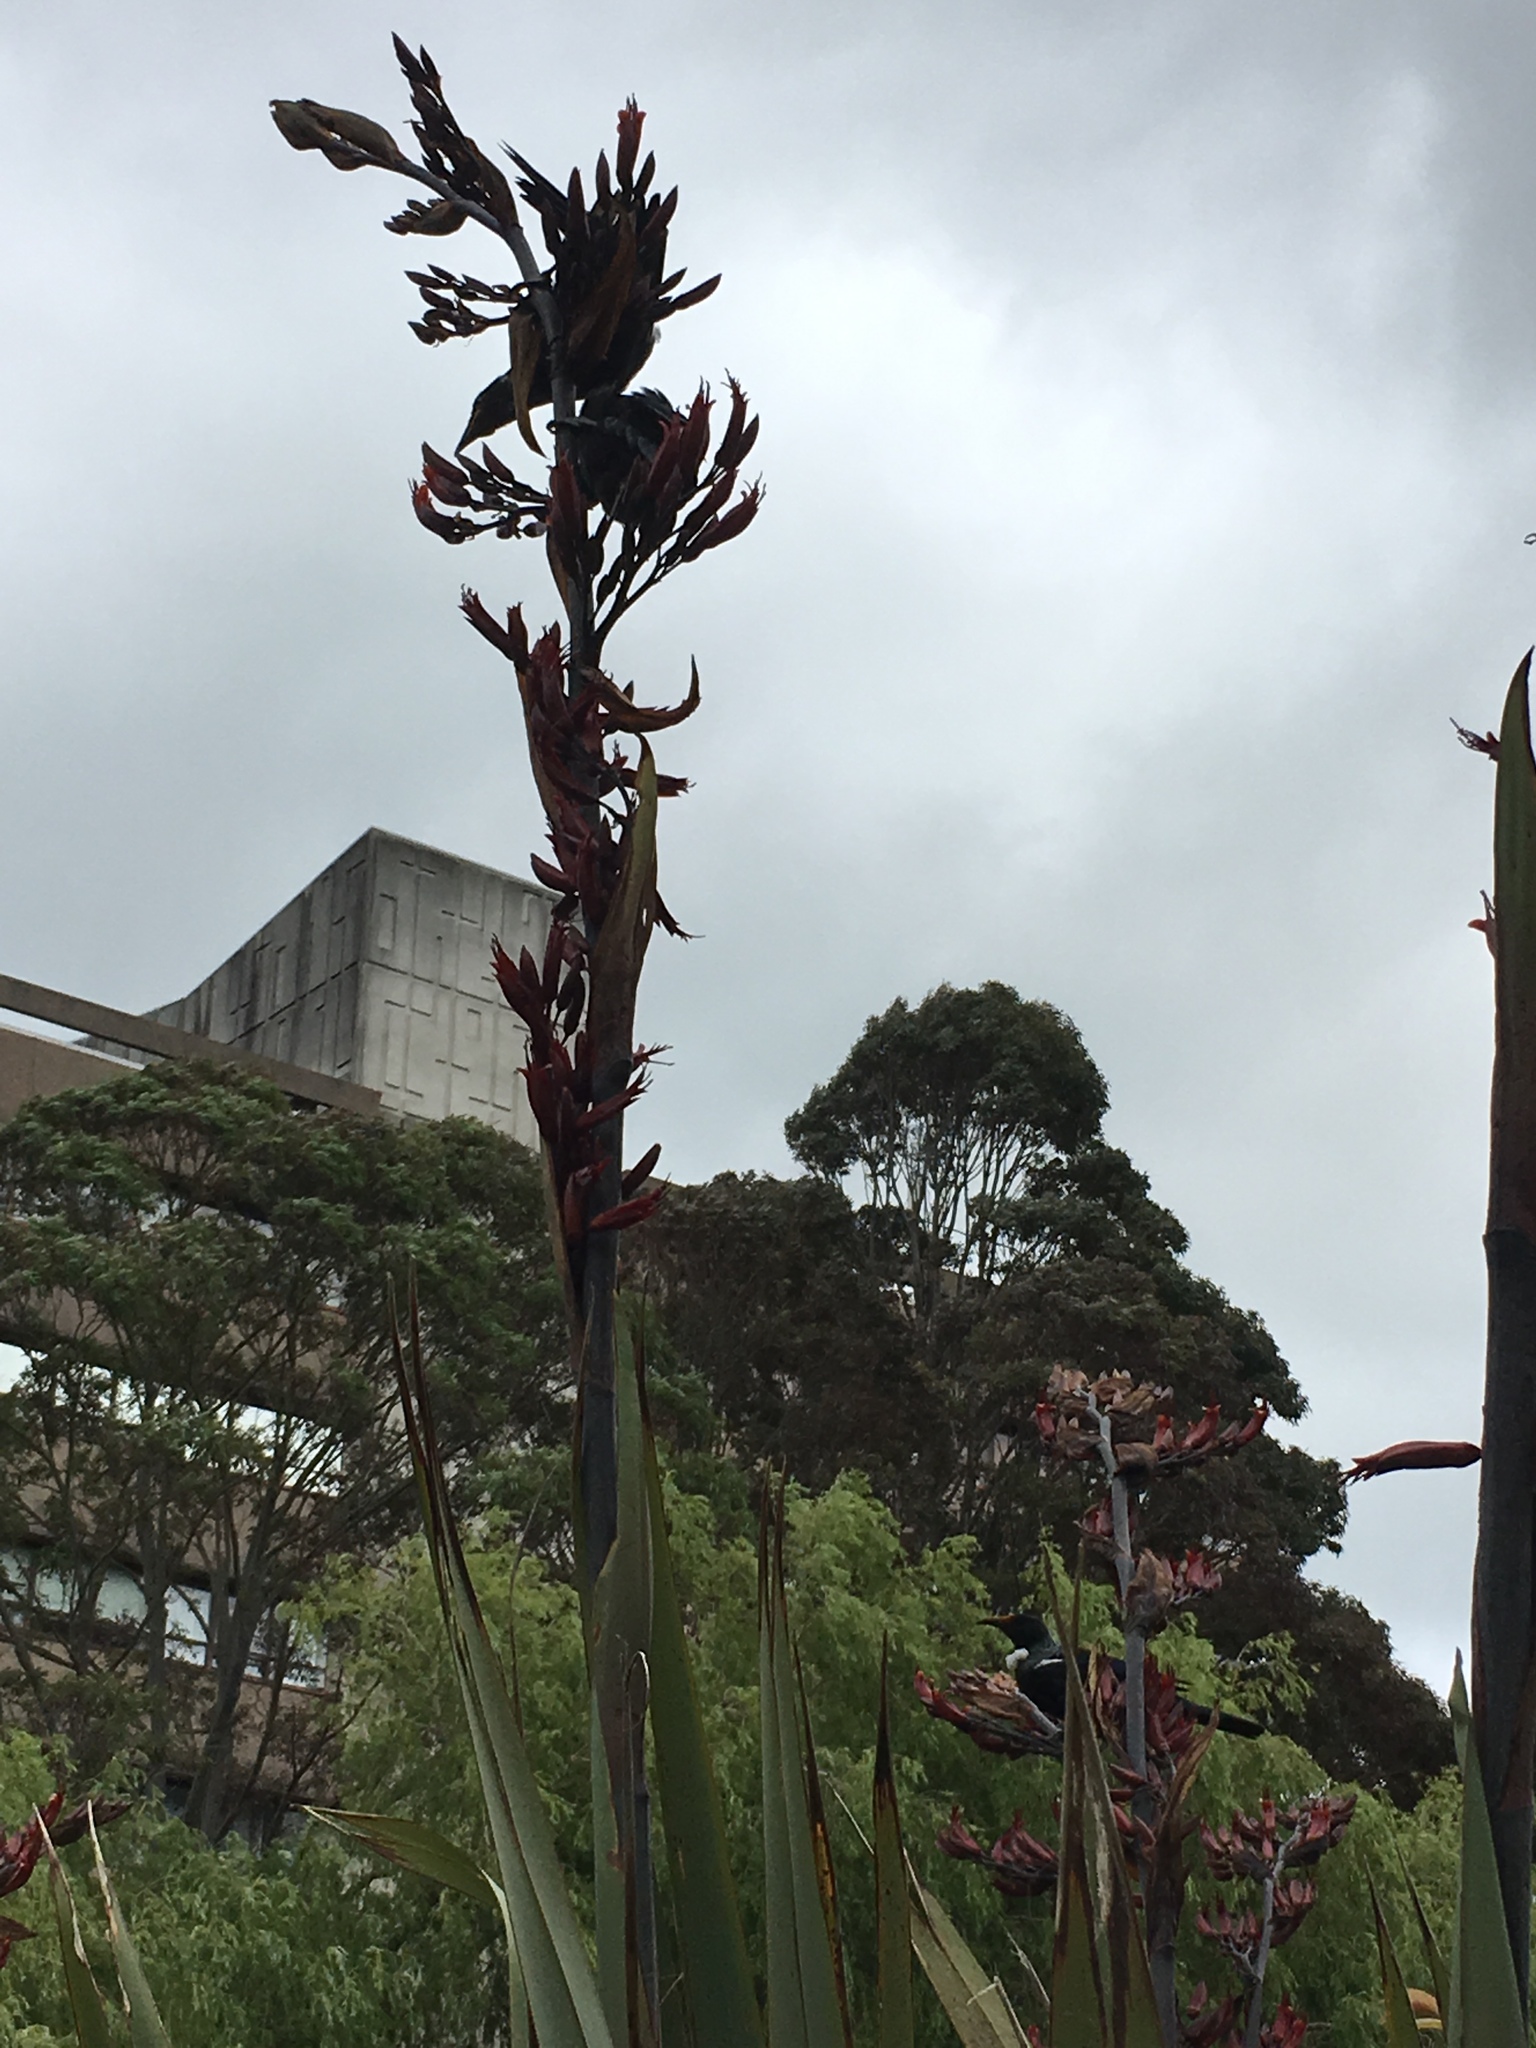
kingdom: Animalia
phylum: Chordata
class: Aves
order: Passeriformes
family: Meliphagidae
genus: Prosthemadera
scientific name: Prosthemadera novaeseelandiae
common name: Tui
